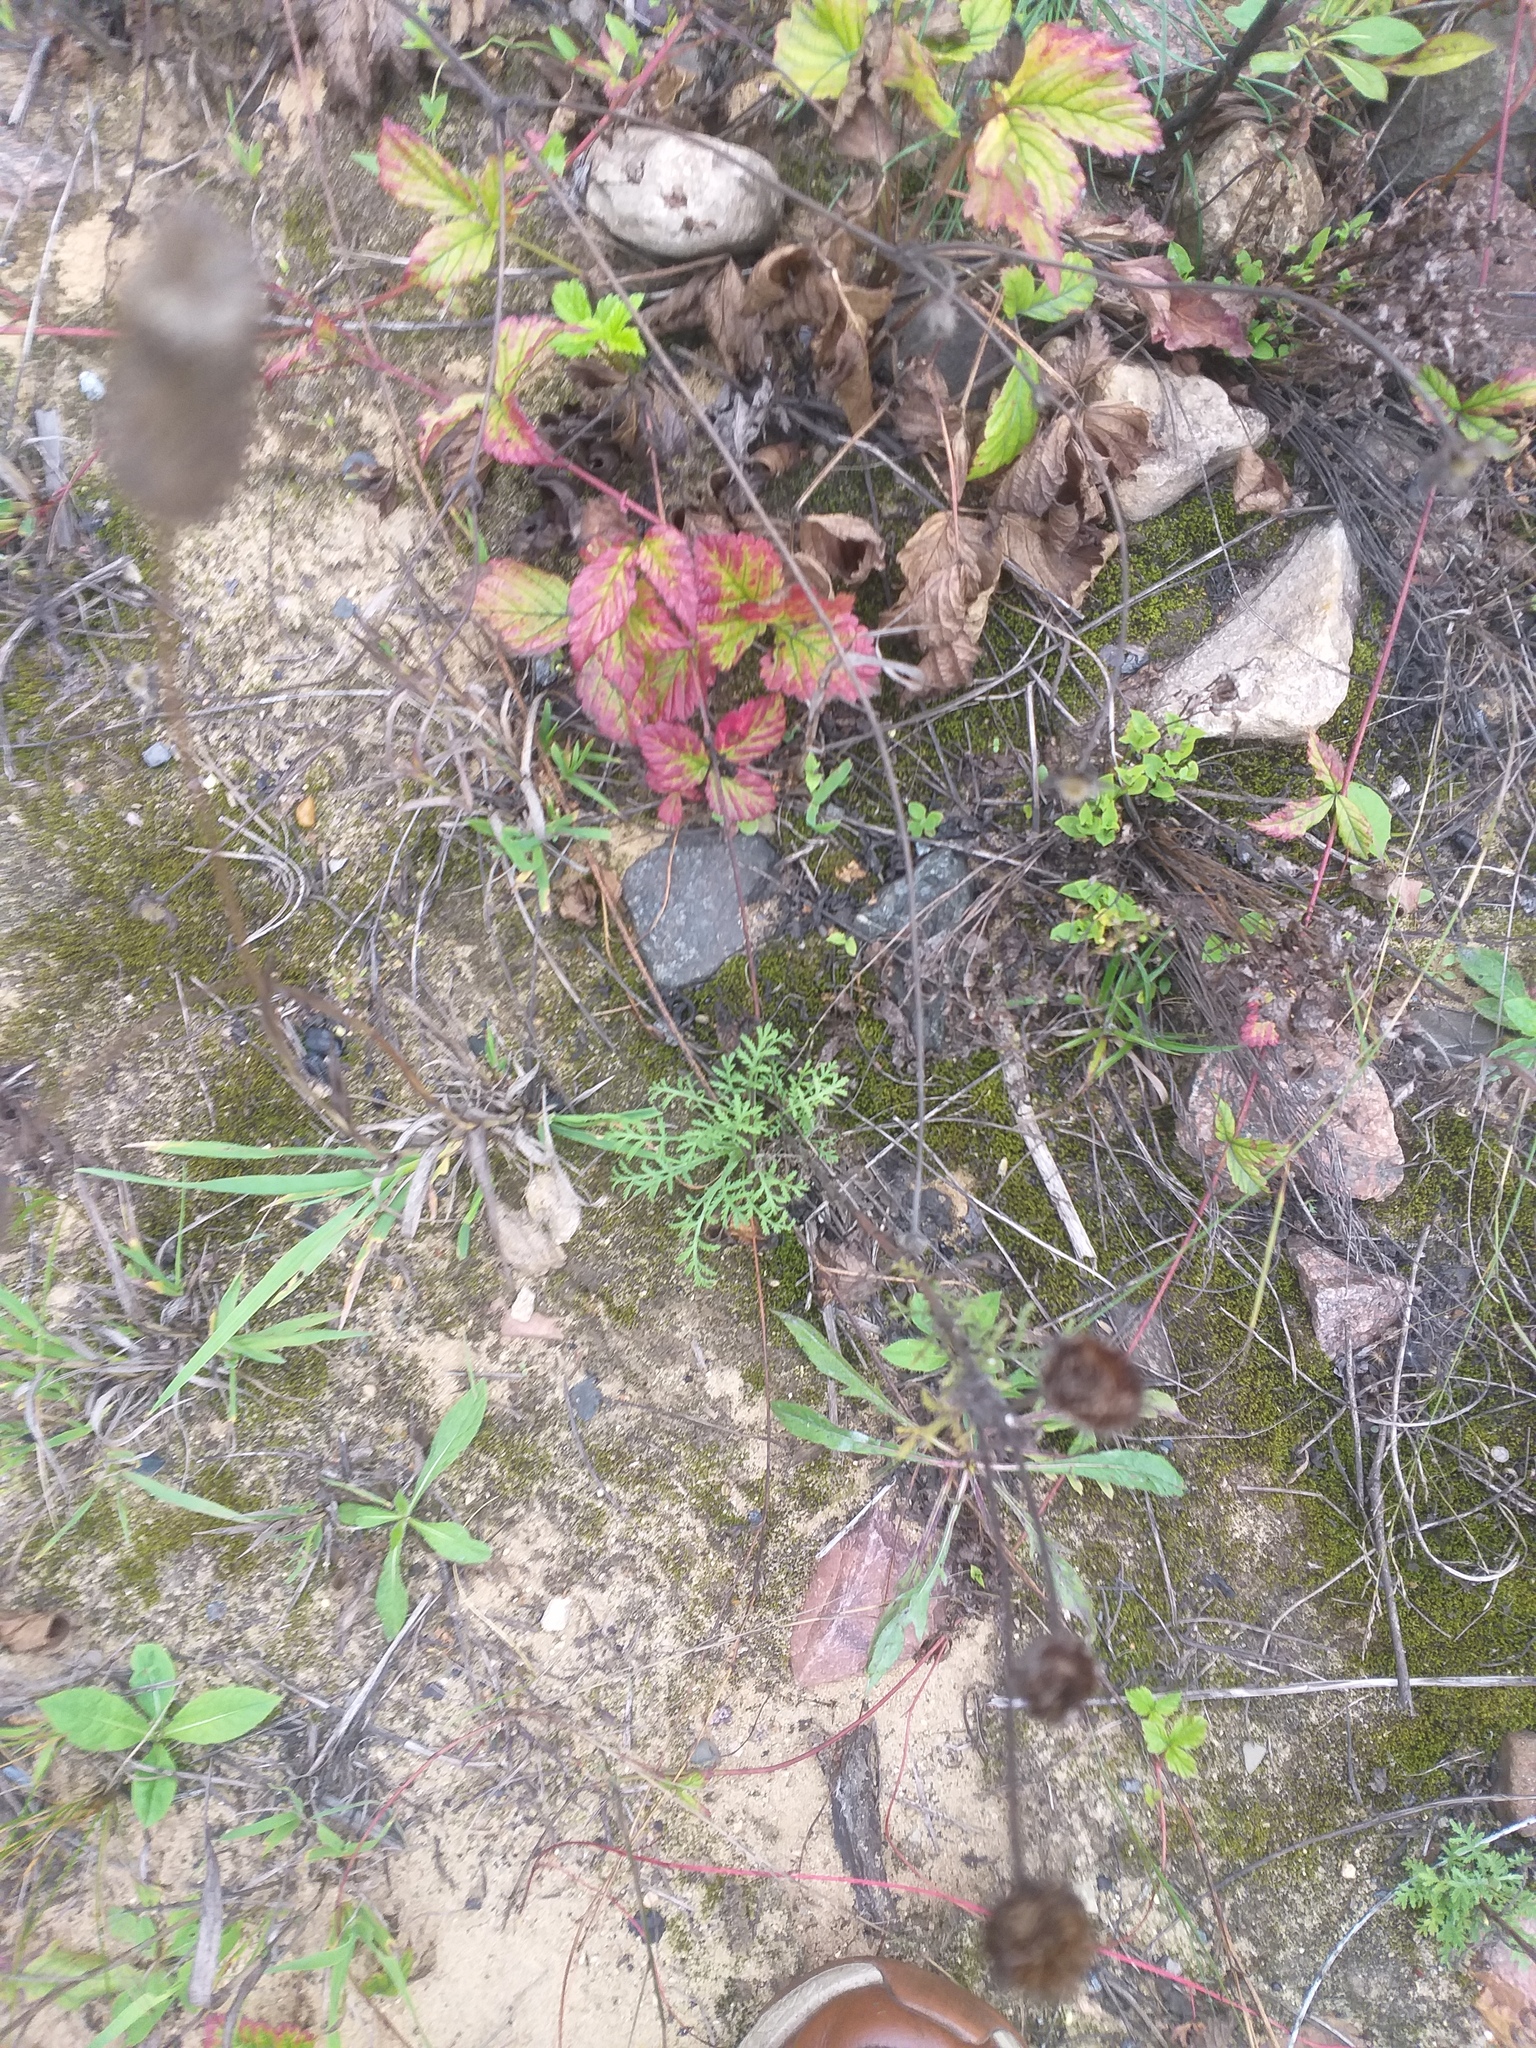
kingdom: Plantae
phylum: Tracheophyta
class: Magnoliopsida
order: Asterales
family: Asteraceae
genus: Cota
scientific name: Cota tinctoria
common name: Golden chamomile
